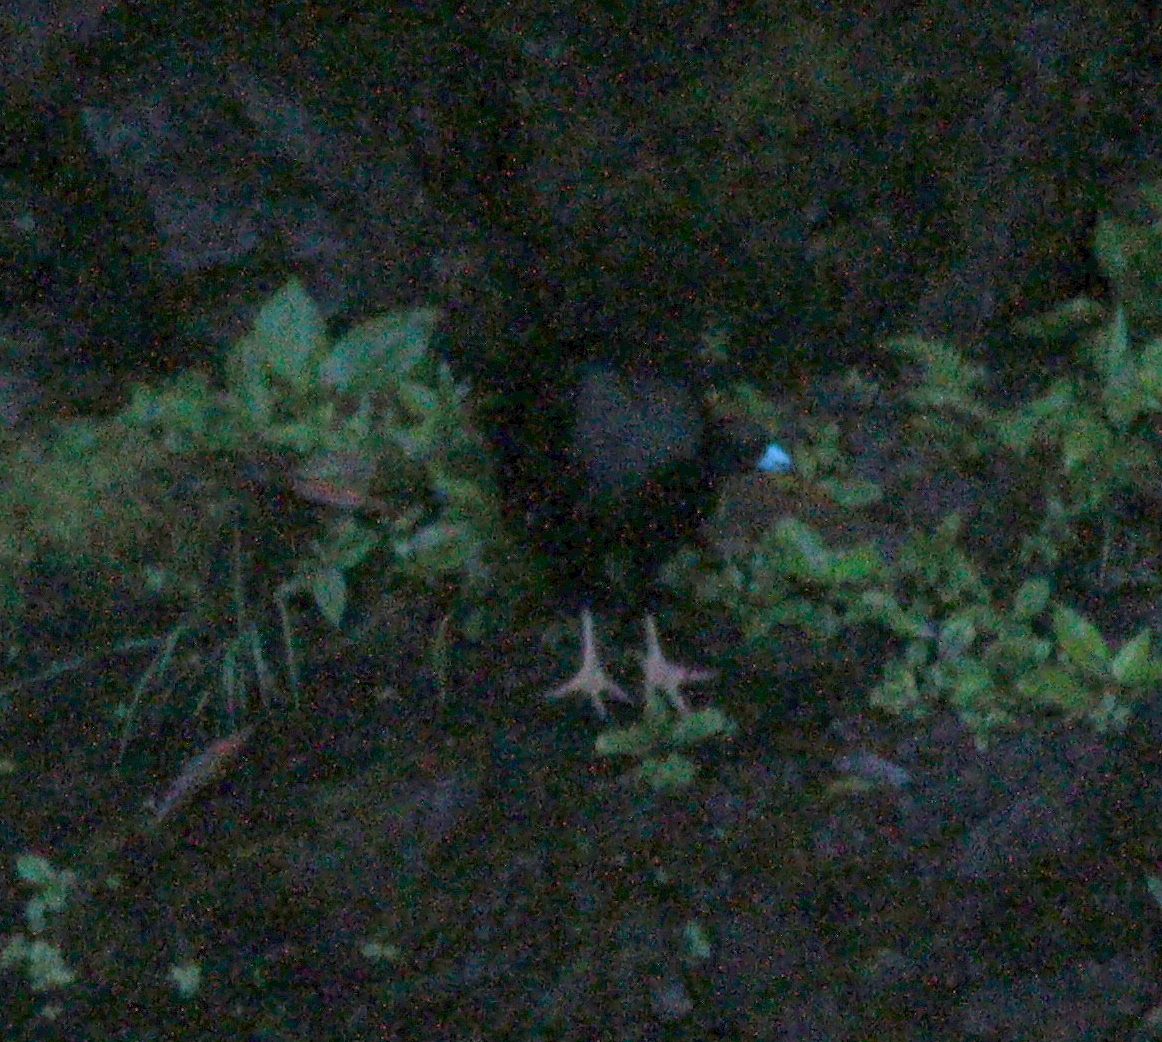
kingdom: Animalia
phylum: Chordata
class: Aves
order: Galliformes
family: Cracidae
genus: Aburria
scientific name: Aburria aburri
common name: Wattled guan
